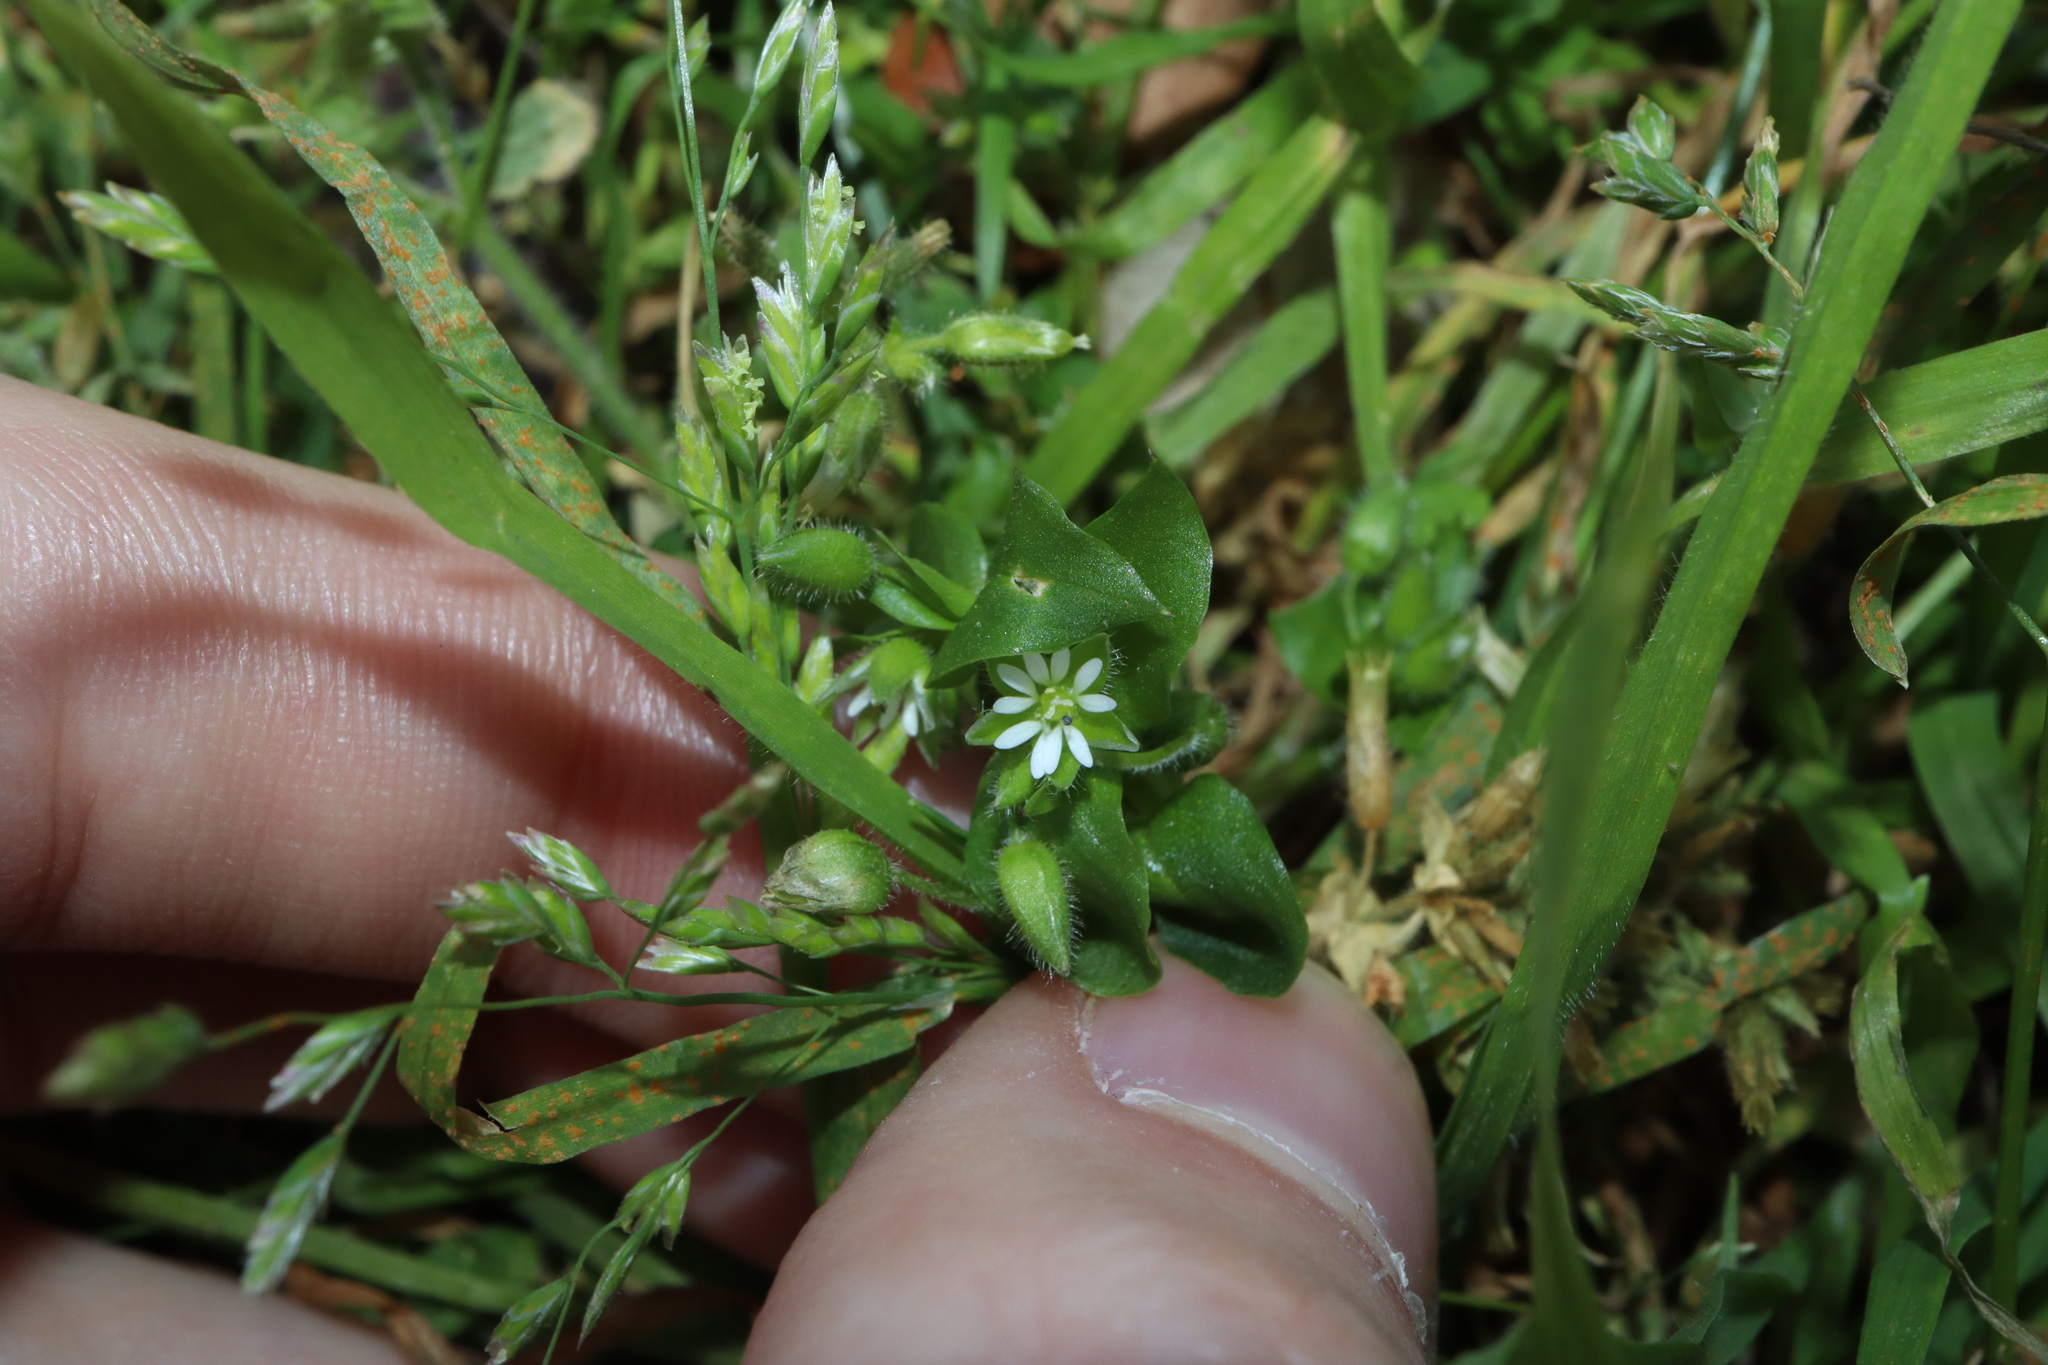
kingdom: Plantae
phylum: Tracheophyta
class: Magnoliopsida
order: Caryophyllales
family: Caryophyllaceae
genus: Stellaria
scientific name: Stellaria media
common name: Common chickweed
